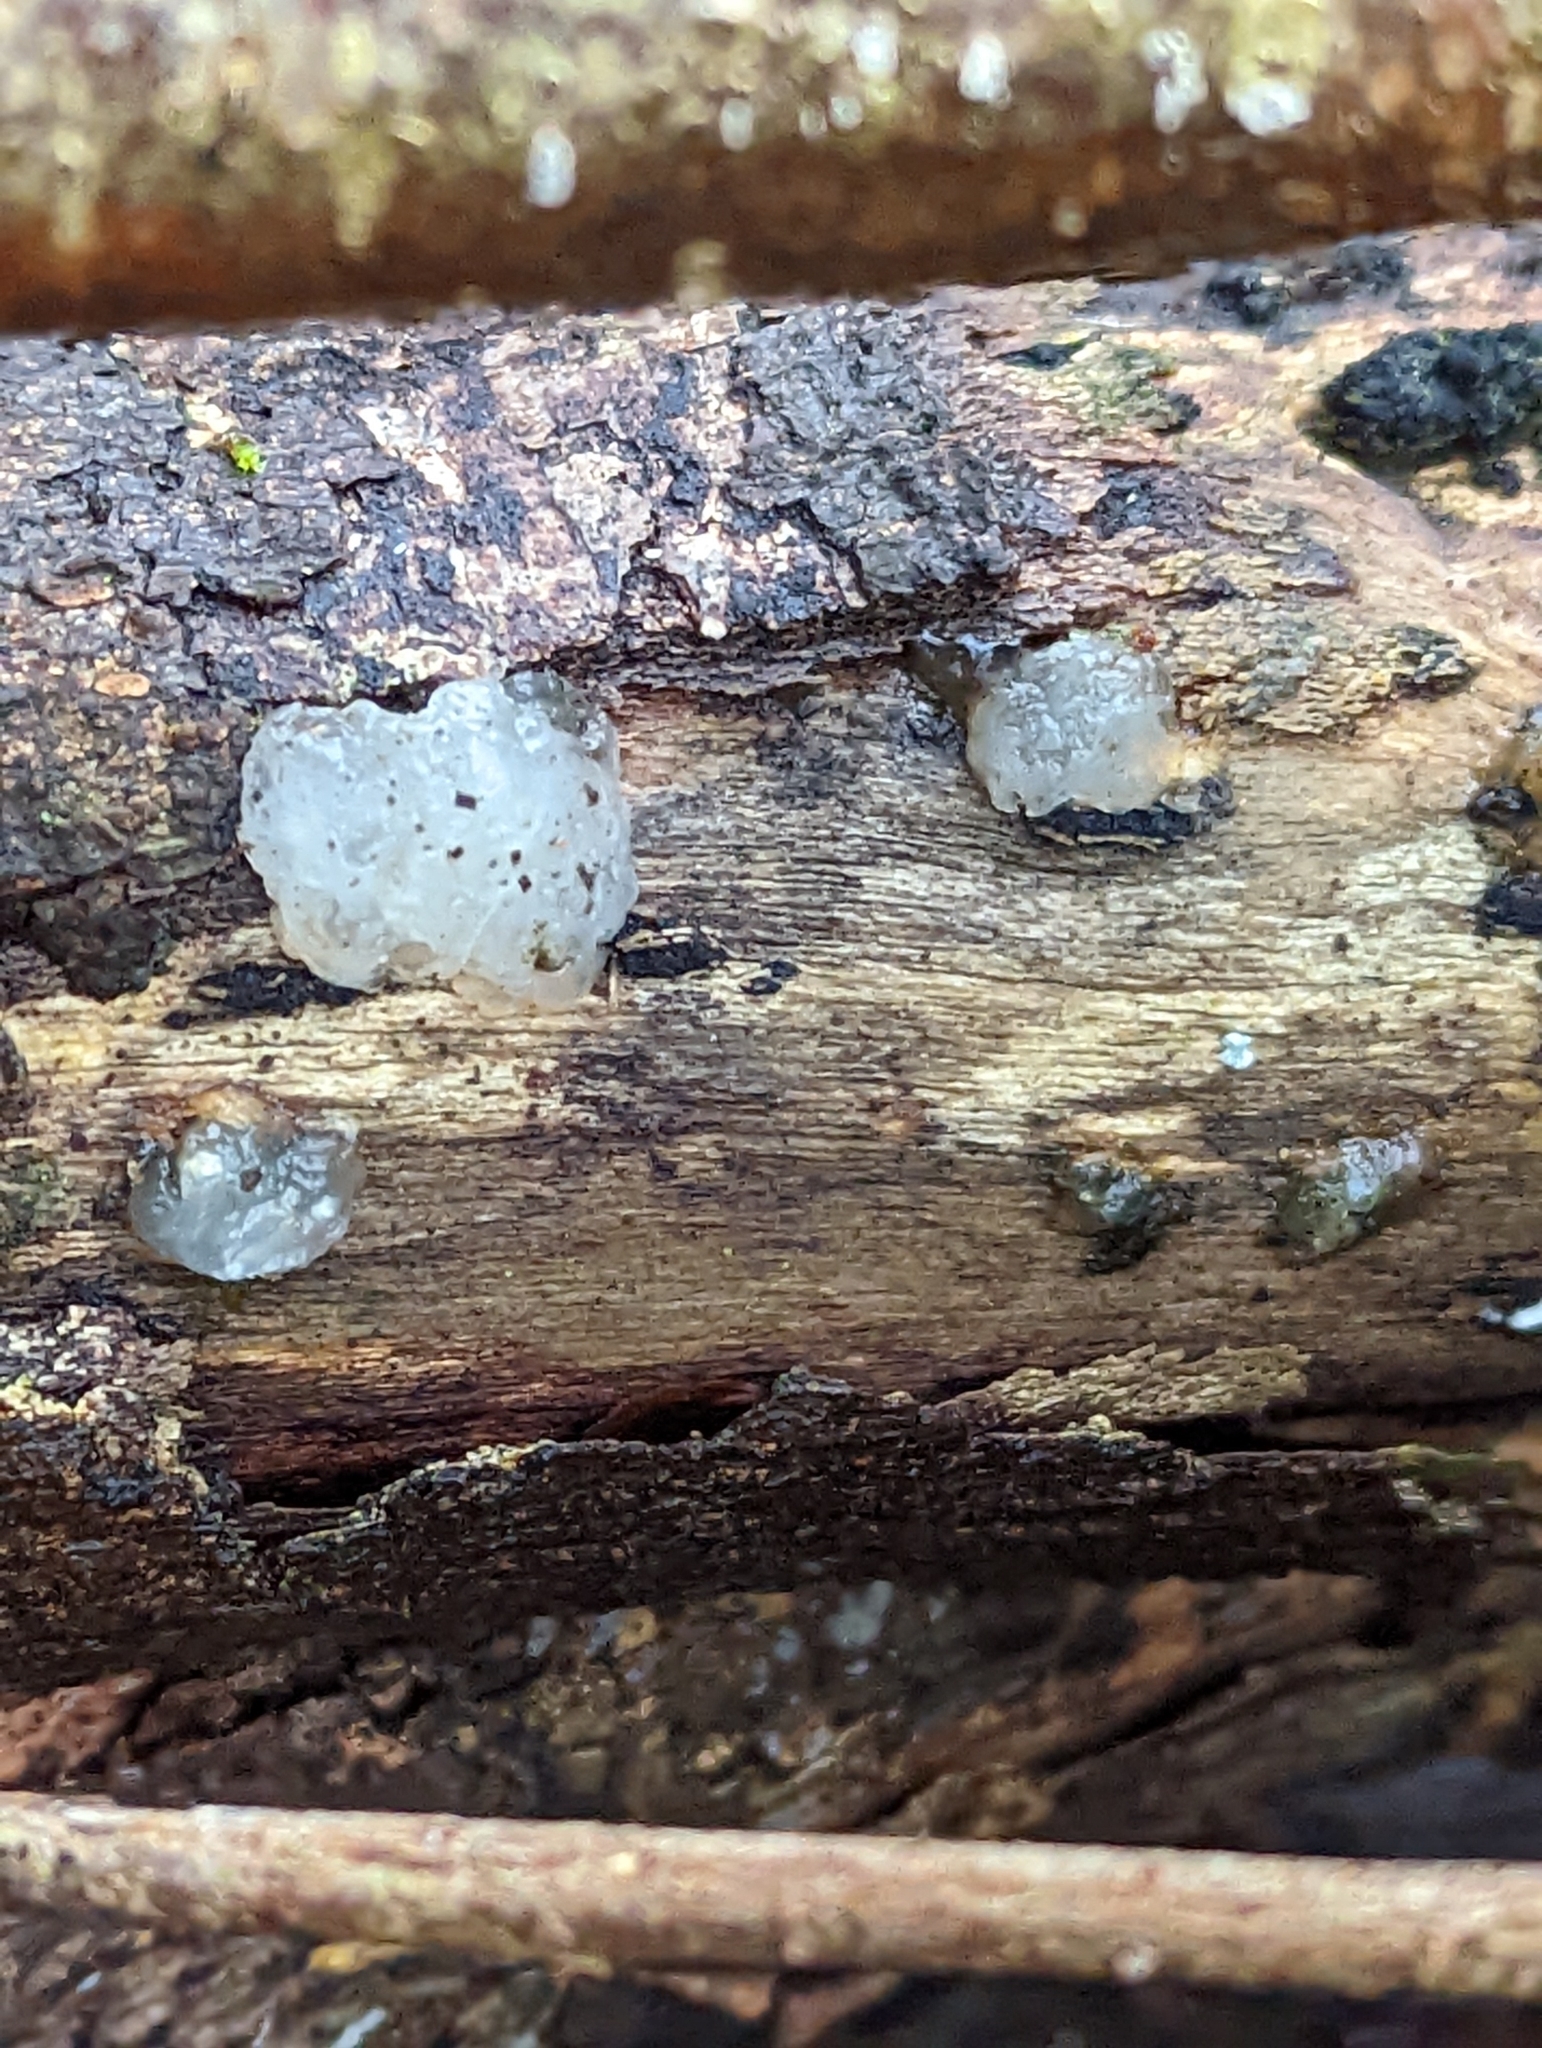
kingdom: Fungi
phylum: Basidiomycota
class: Agaricomycetes
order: Auriculariales
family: Hyaloriaceae
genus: Myxarium
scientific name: Myxarium nucleatum
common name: Crystal brain fungus
